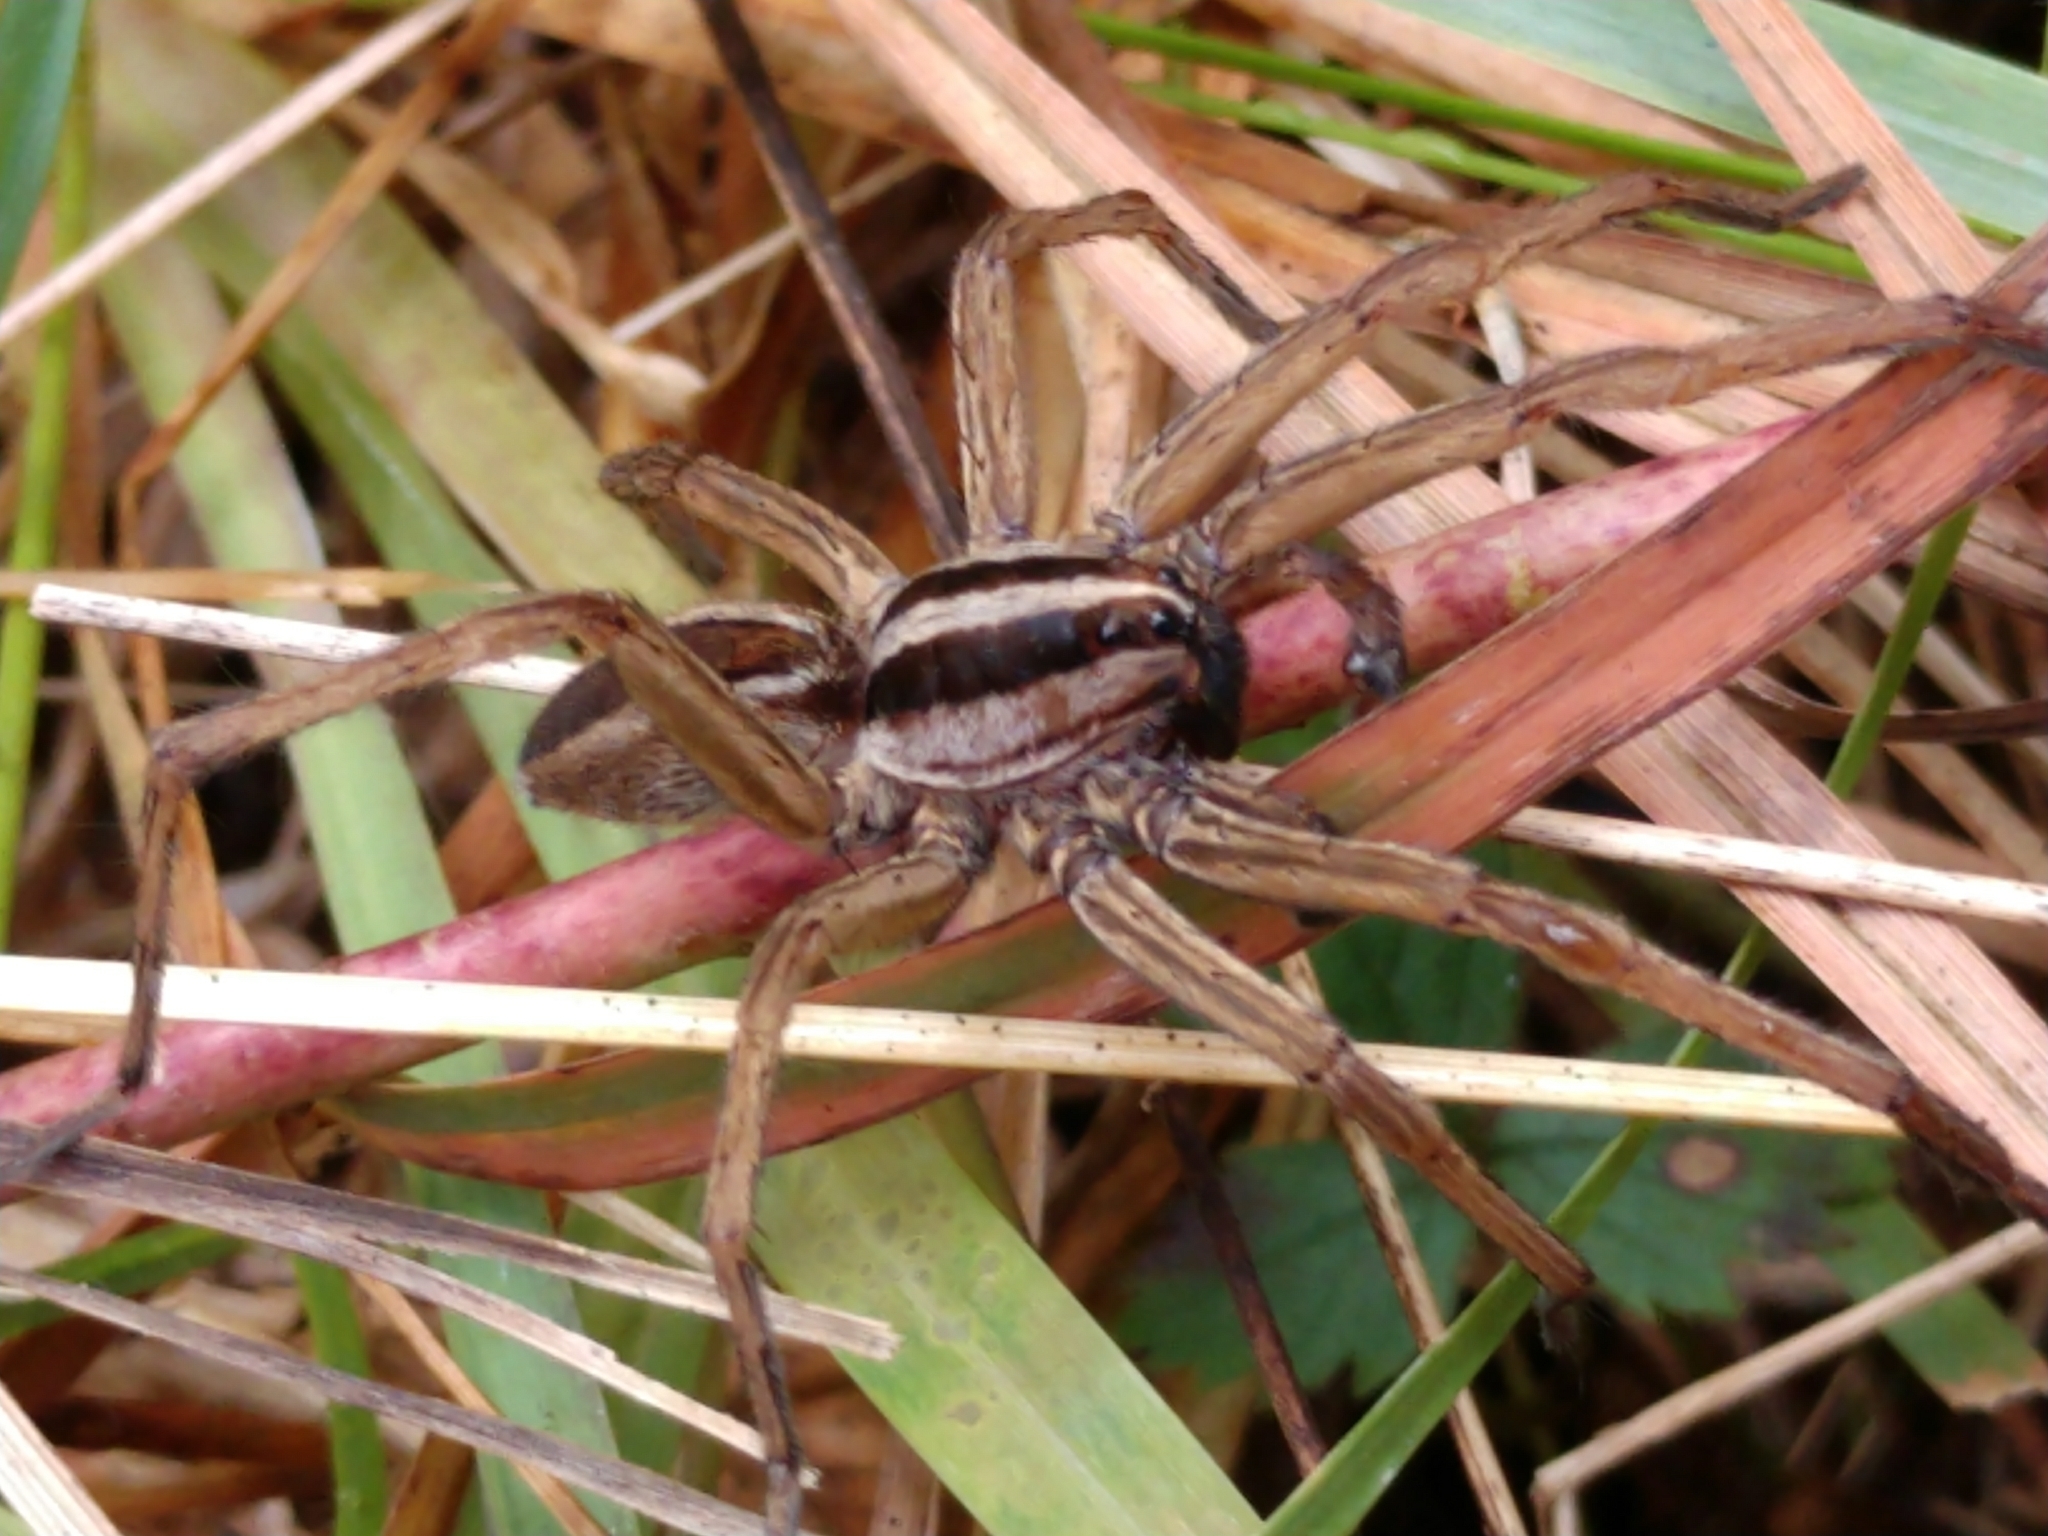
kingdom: Animalia
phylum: Arthropoda
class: Arachnida
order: Araneae
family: Lycosidae
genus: Rabidosa
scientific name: Rabidosa punctulata
